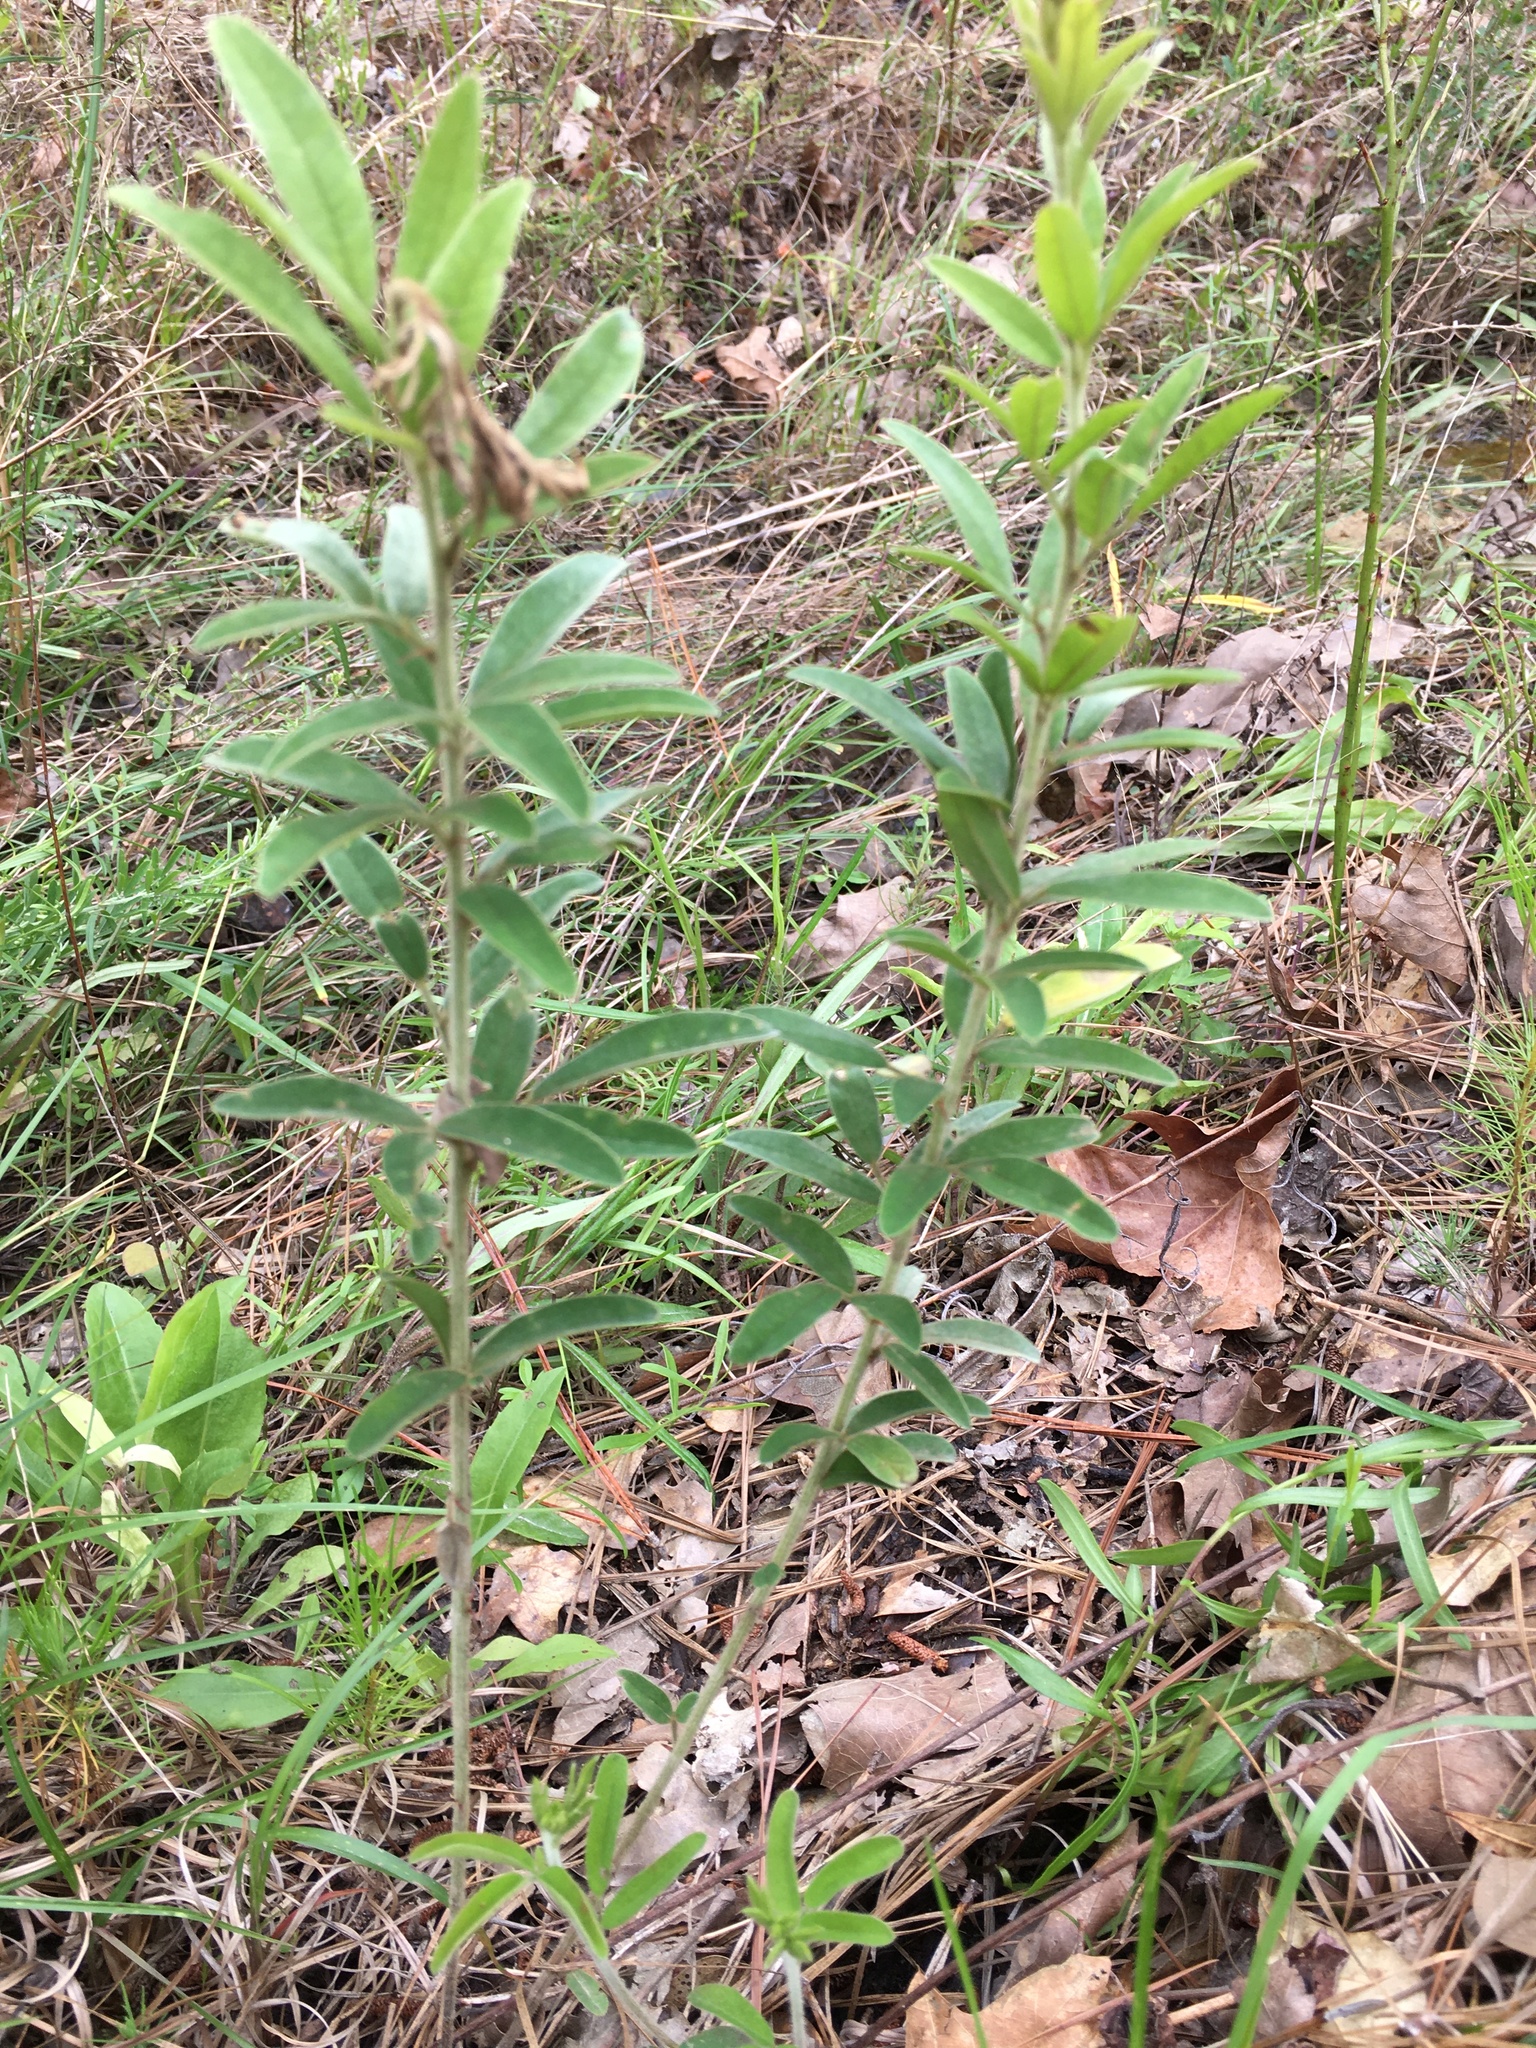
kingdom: Plantae
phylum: Tracheophyta
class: Magnoliopsida
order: Fabales
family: Fabaceae
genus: Lespedeza
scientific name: Lespedeza capitata
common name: Dusty clover
